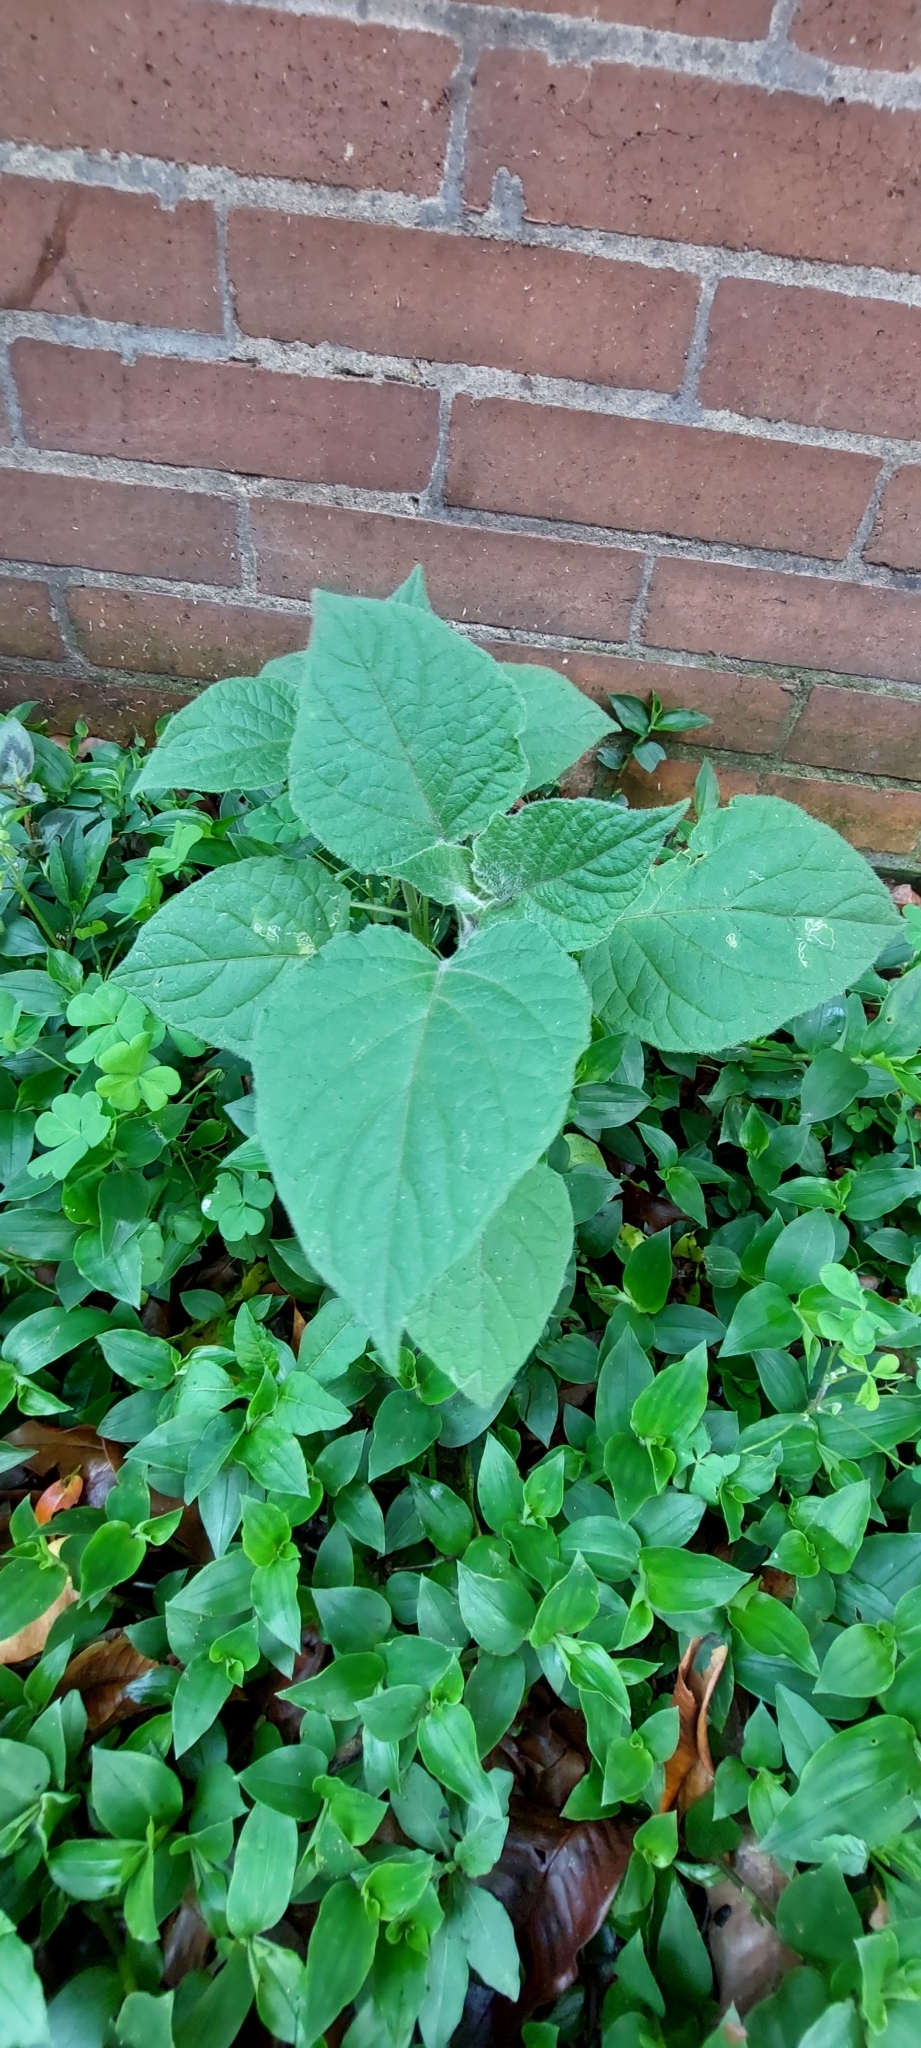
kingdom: Plantae
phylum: Tracheophyta
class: Magnoliopsida
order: Solanales
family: Solanaceae
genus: Physalis
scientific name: Physalis peruviana
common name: Cape-gooseberry
